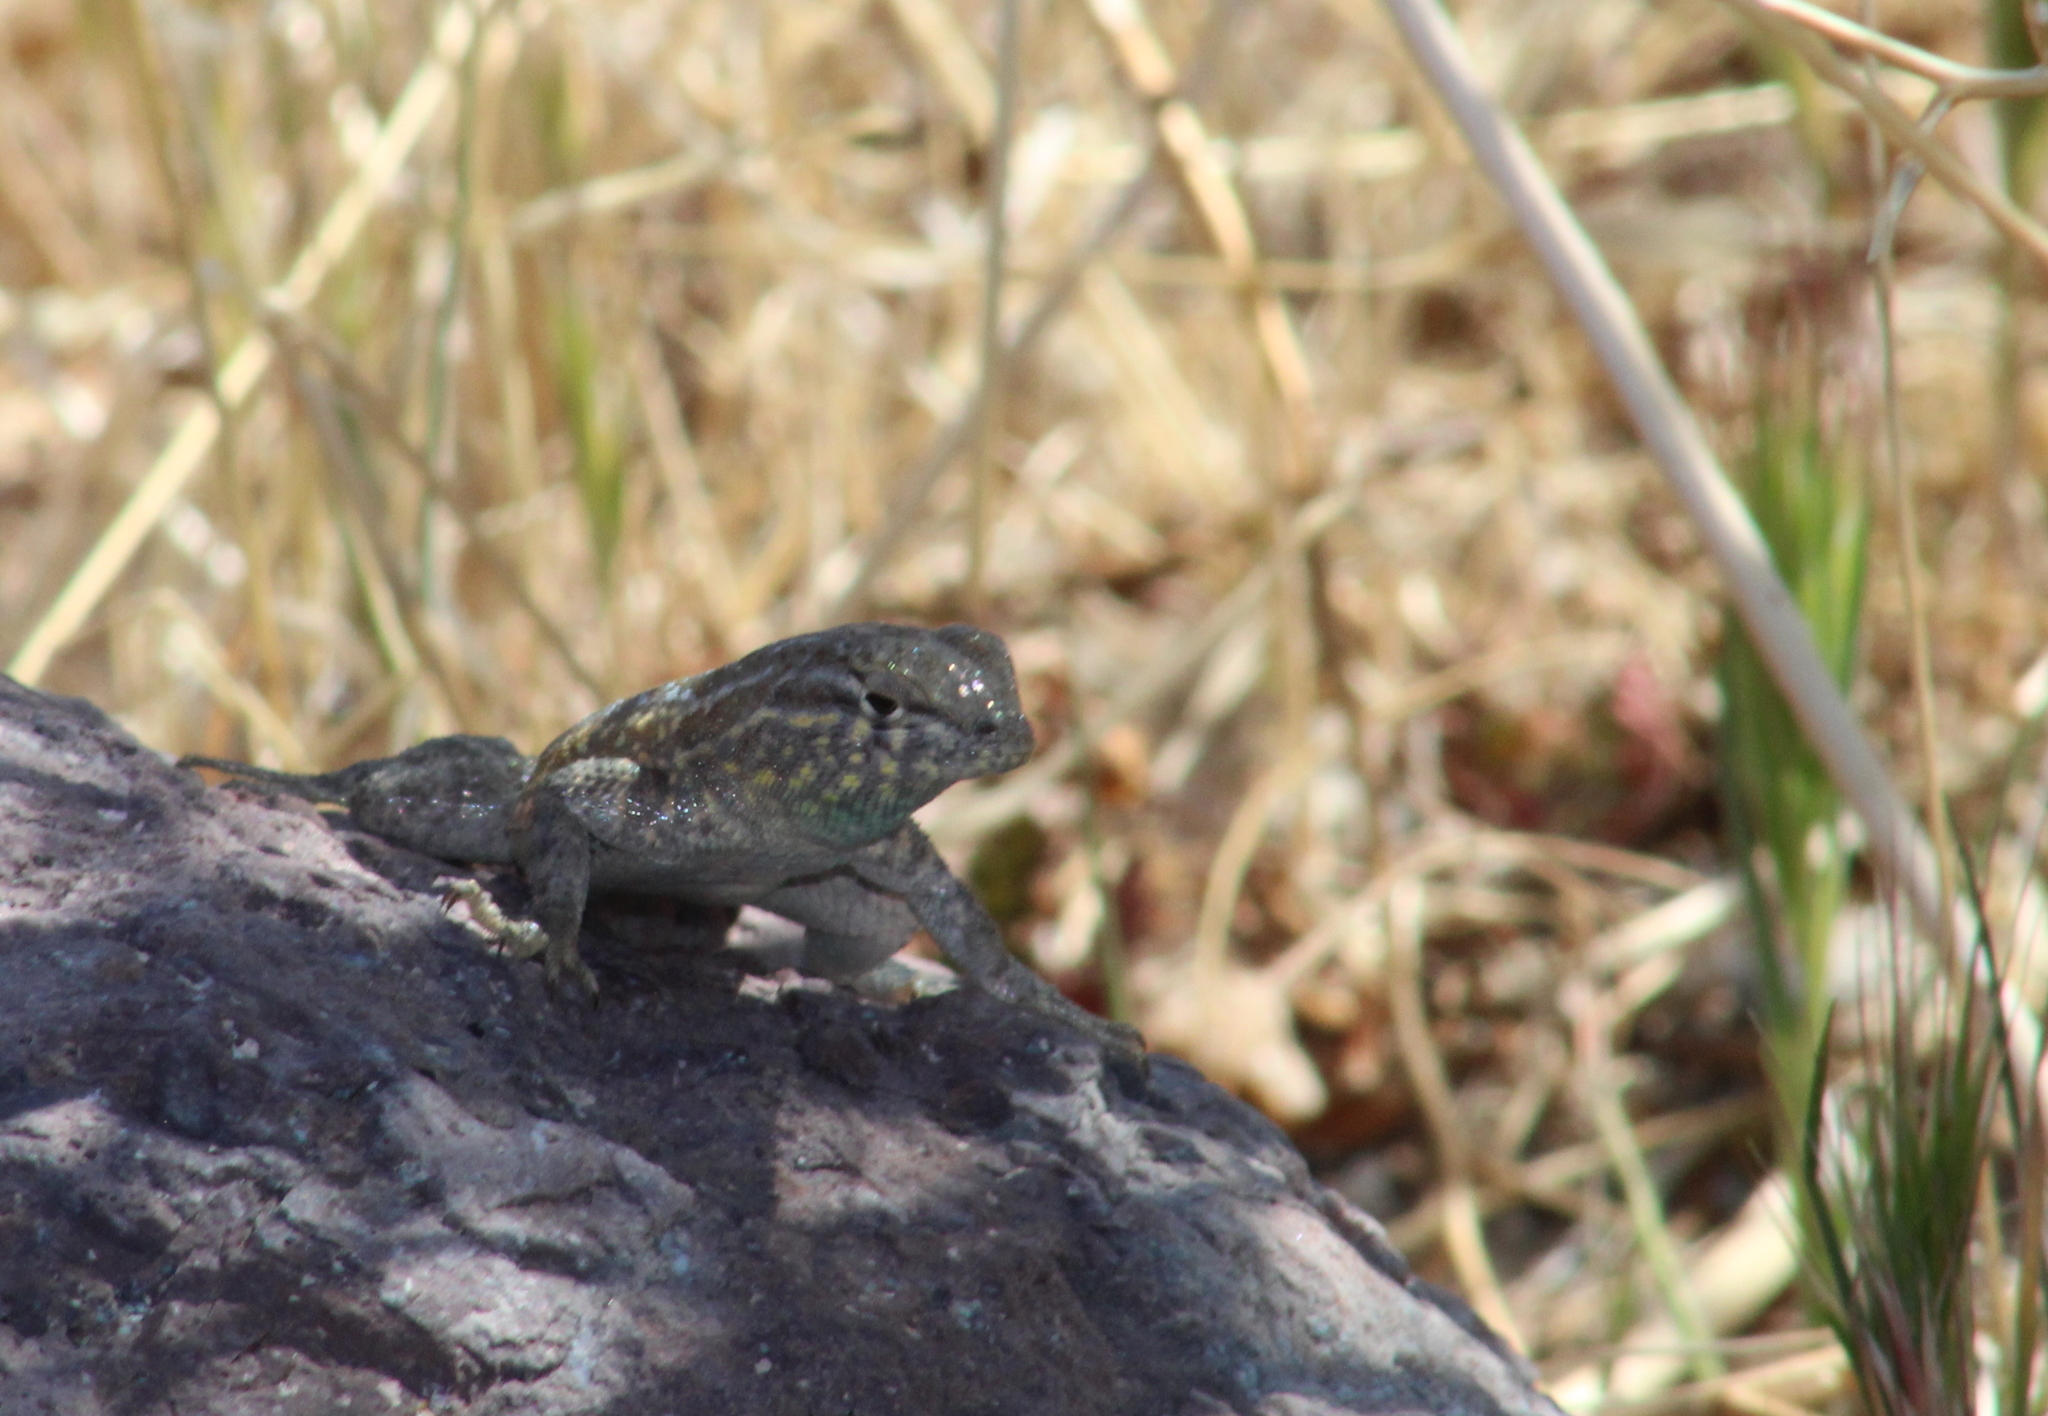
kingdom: Animalia
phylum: Chordata
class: Squamata
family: Phrynosomatidae
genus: Uta
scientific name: Uta stansburiana
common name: Side-blotched lizard
